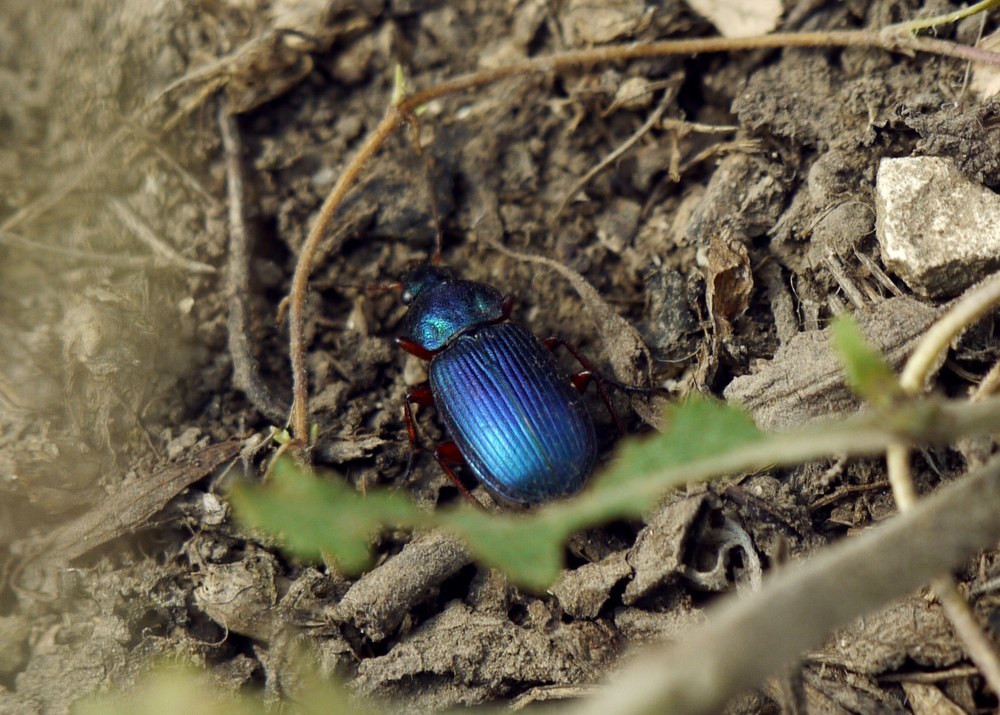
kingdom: Animalia
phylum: Arthropoda
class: Insecta
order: Coleoptera
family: Carabidae
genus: Chlaenius
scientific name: Chlaenius decipiens
